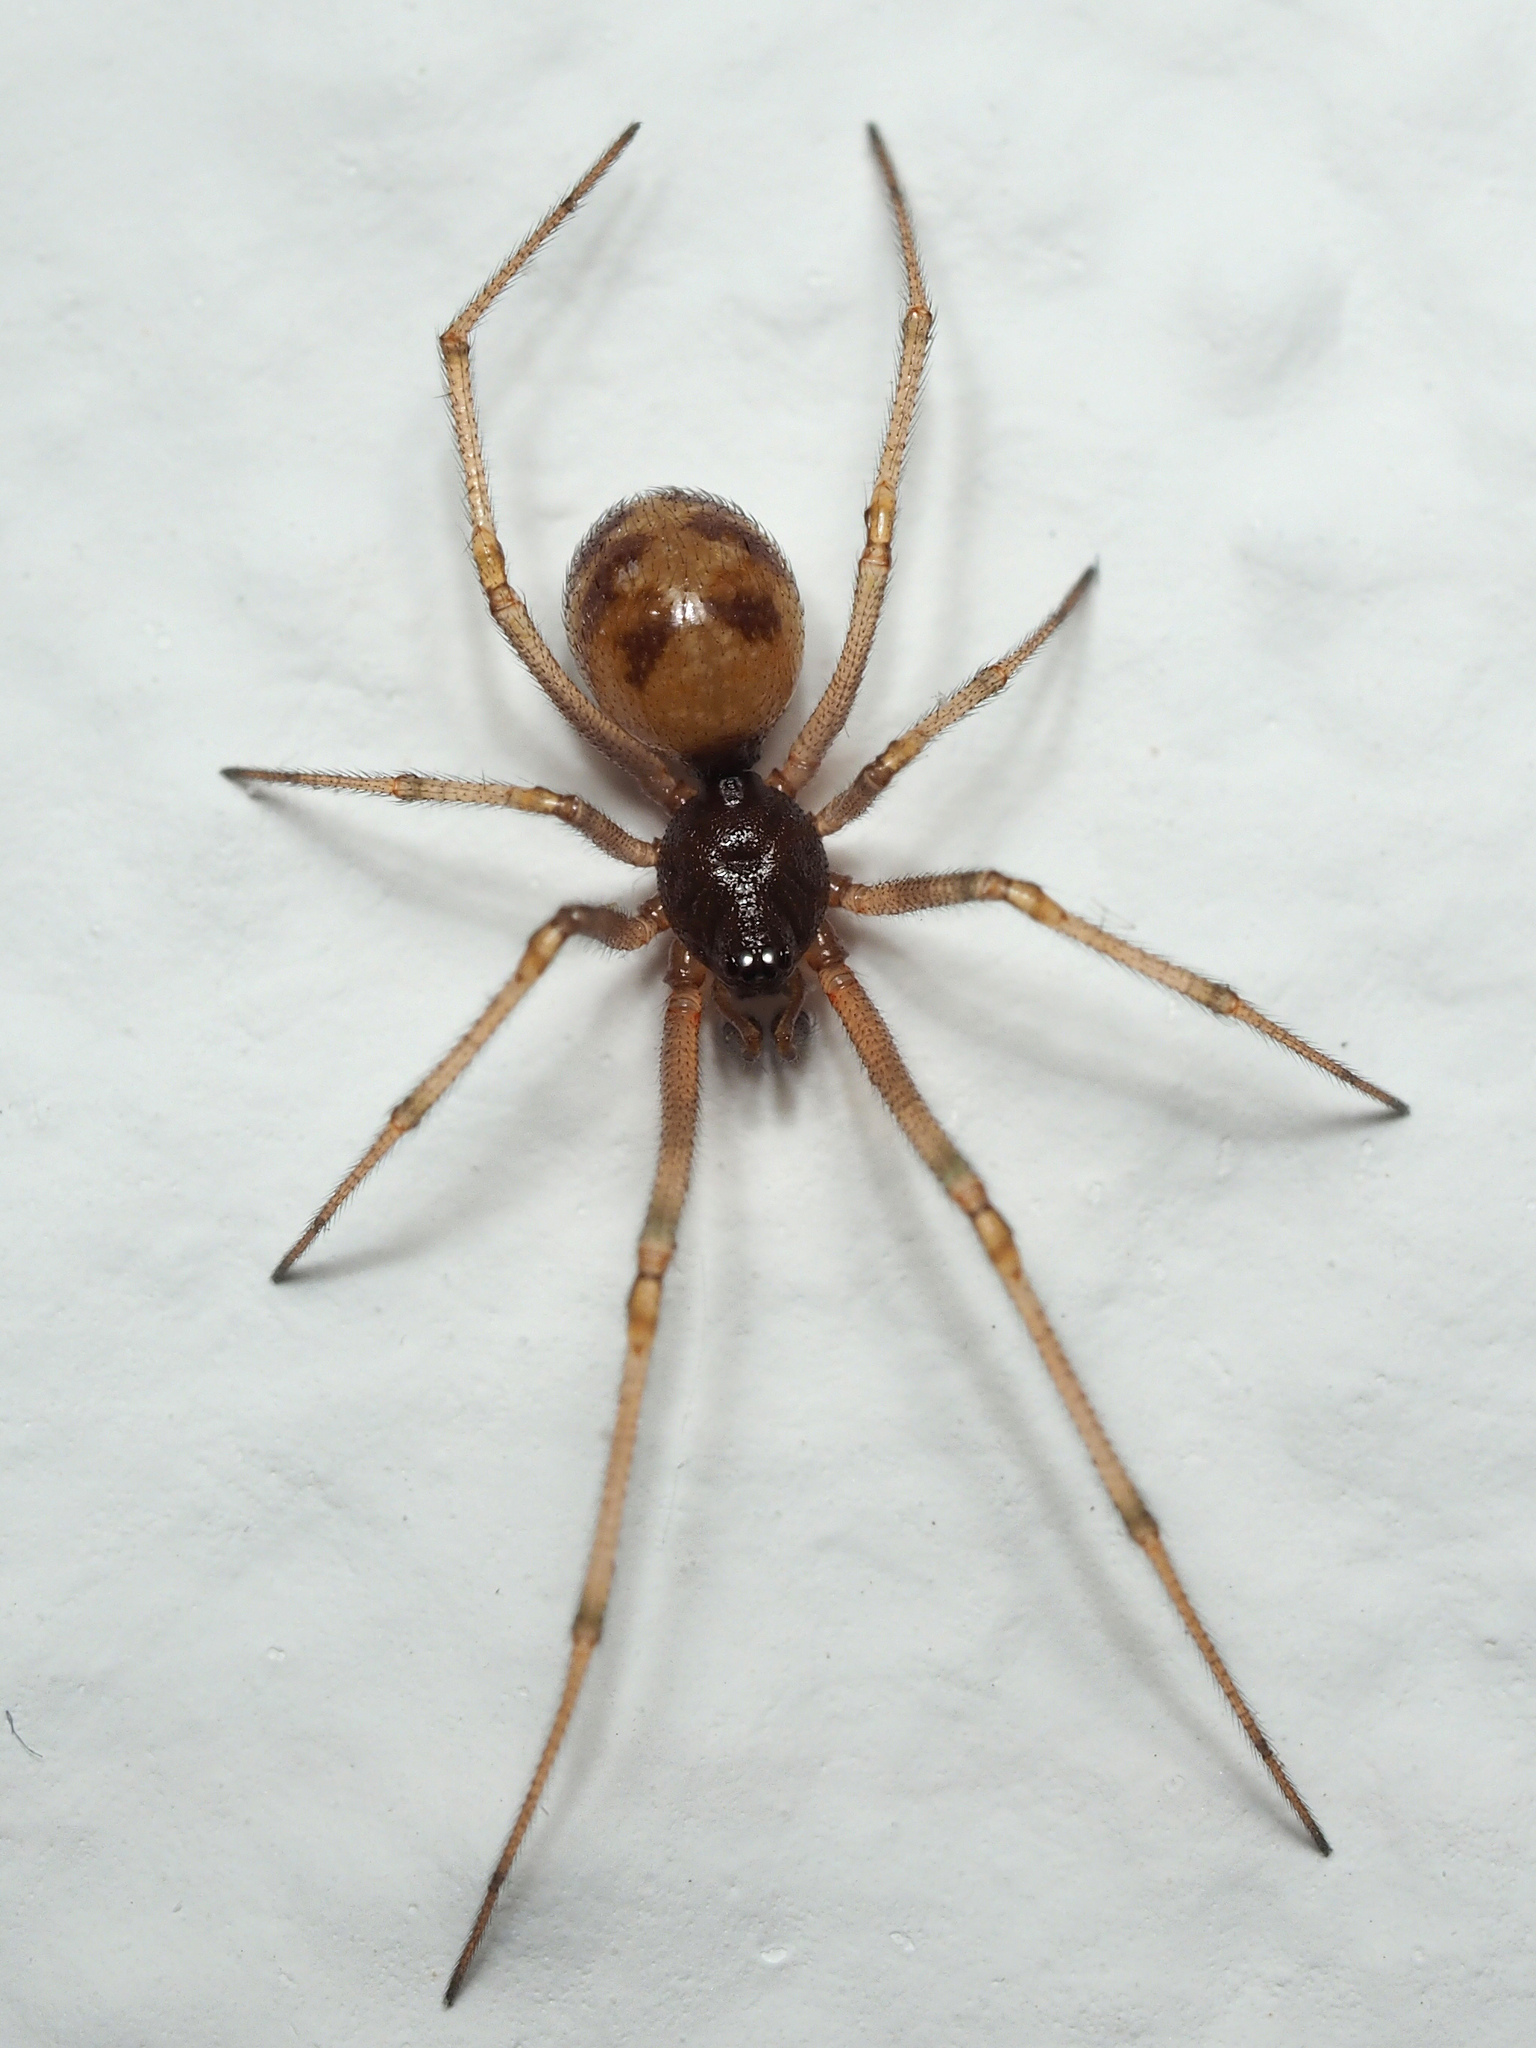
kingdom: Animalia
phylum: Arthropoda
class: Arachnida
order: Araneae
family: Theridiidae
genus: Steatoda
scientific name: Steatoda triangulosa
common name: Triangulate bud spider
